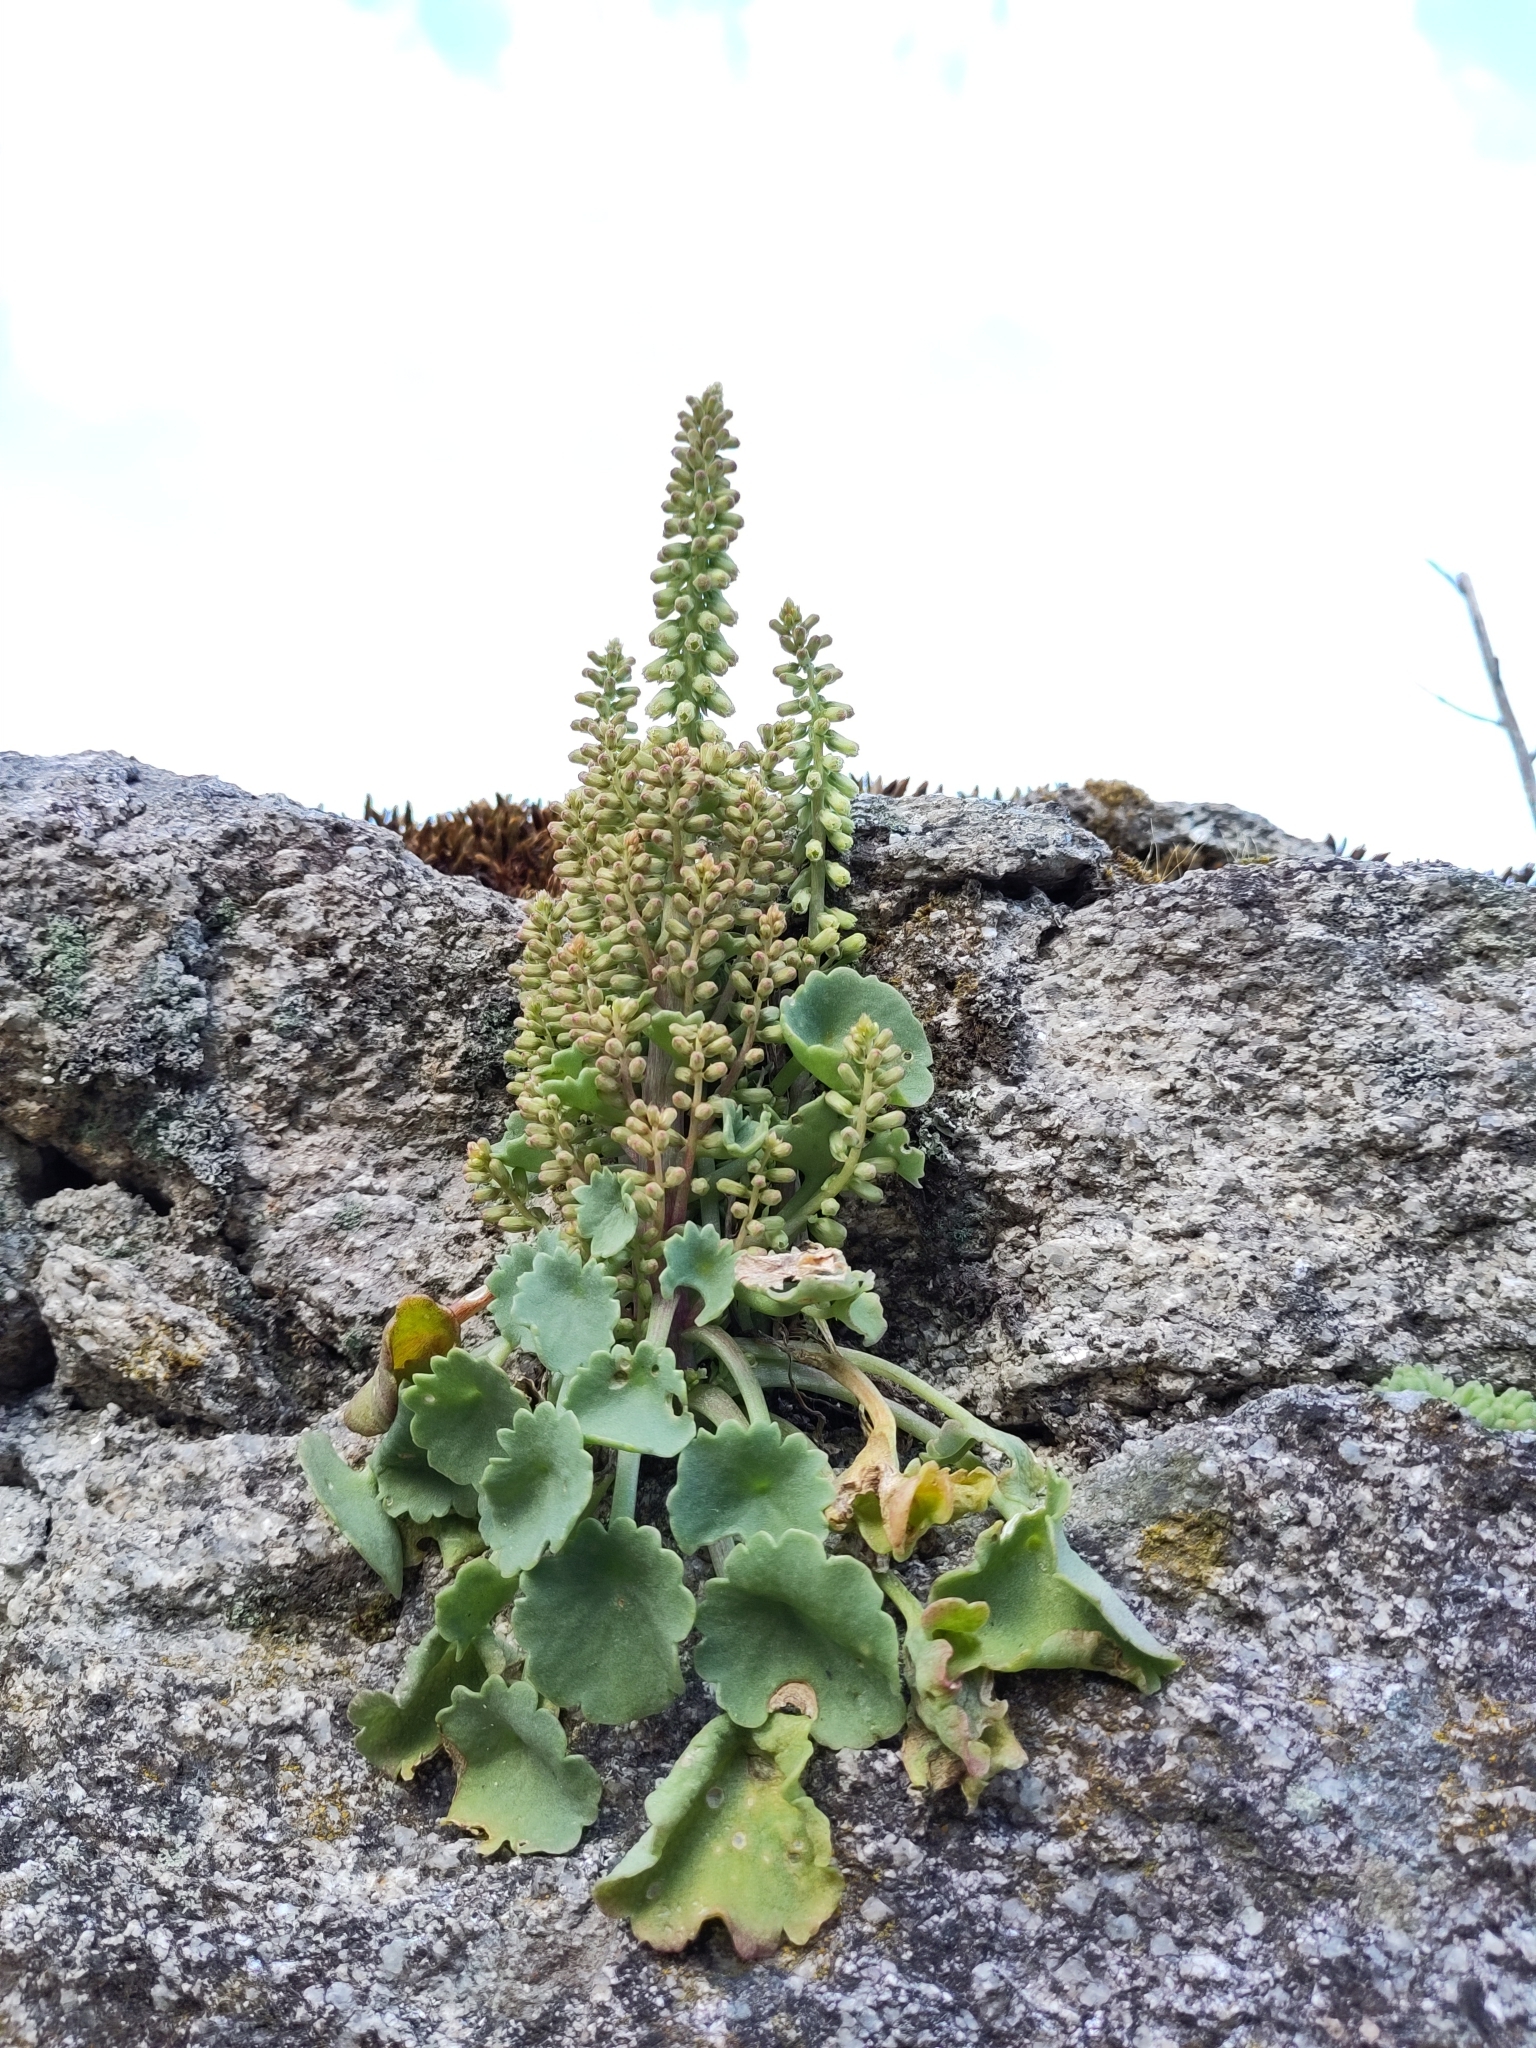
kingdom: Plantae
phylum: Tracheophyta
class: Magnoliopsida
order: Saxifragales
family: Crassulaceae
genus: Umbilicus
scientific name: Umbilicus rupestris
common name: Navelwort
